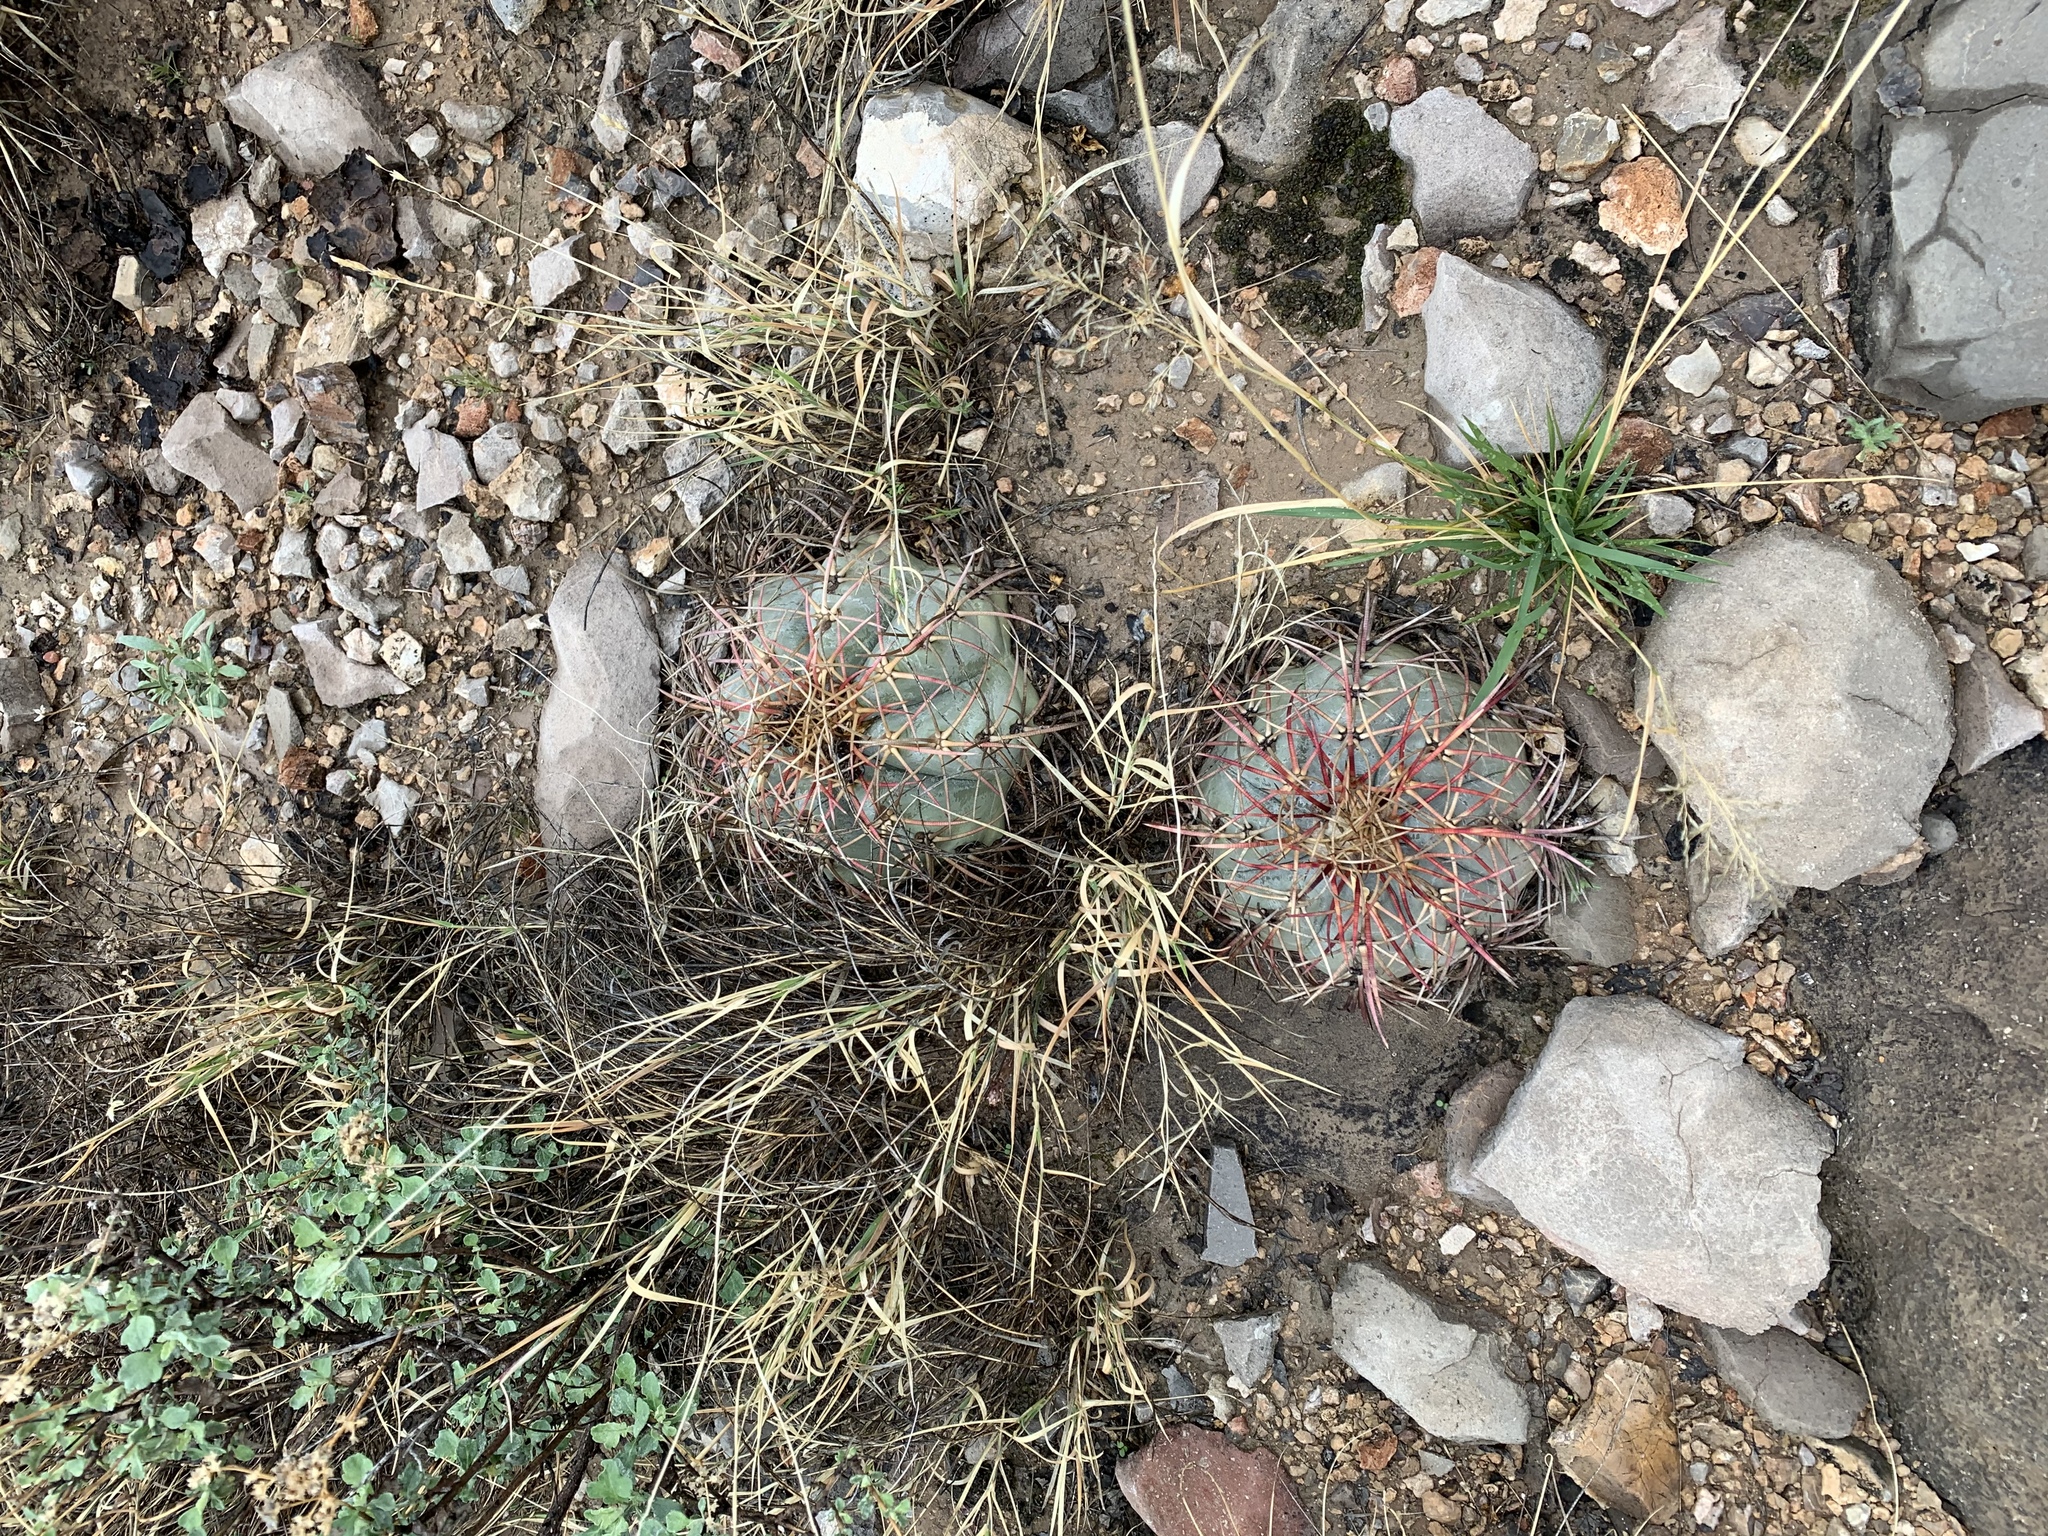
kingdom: Plantae
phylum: Tracheophyta
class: Magnoliopsida
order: Caryophyllales
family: Cactaceae
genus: Echinocactus
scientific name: Echinocactus horizonthalonius
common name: Devilshead
